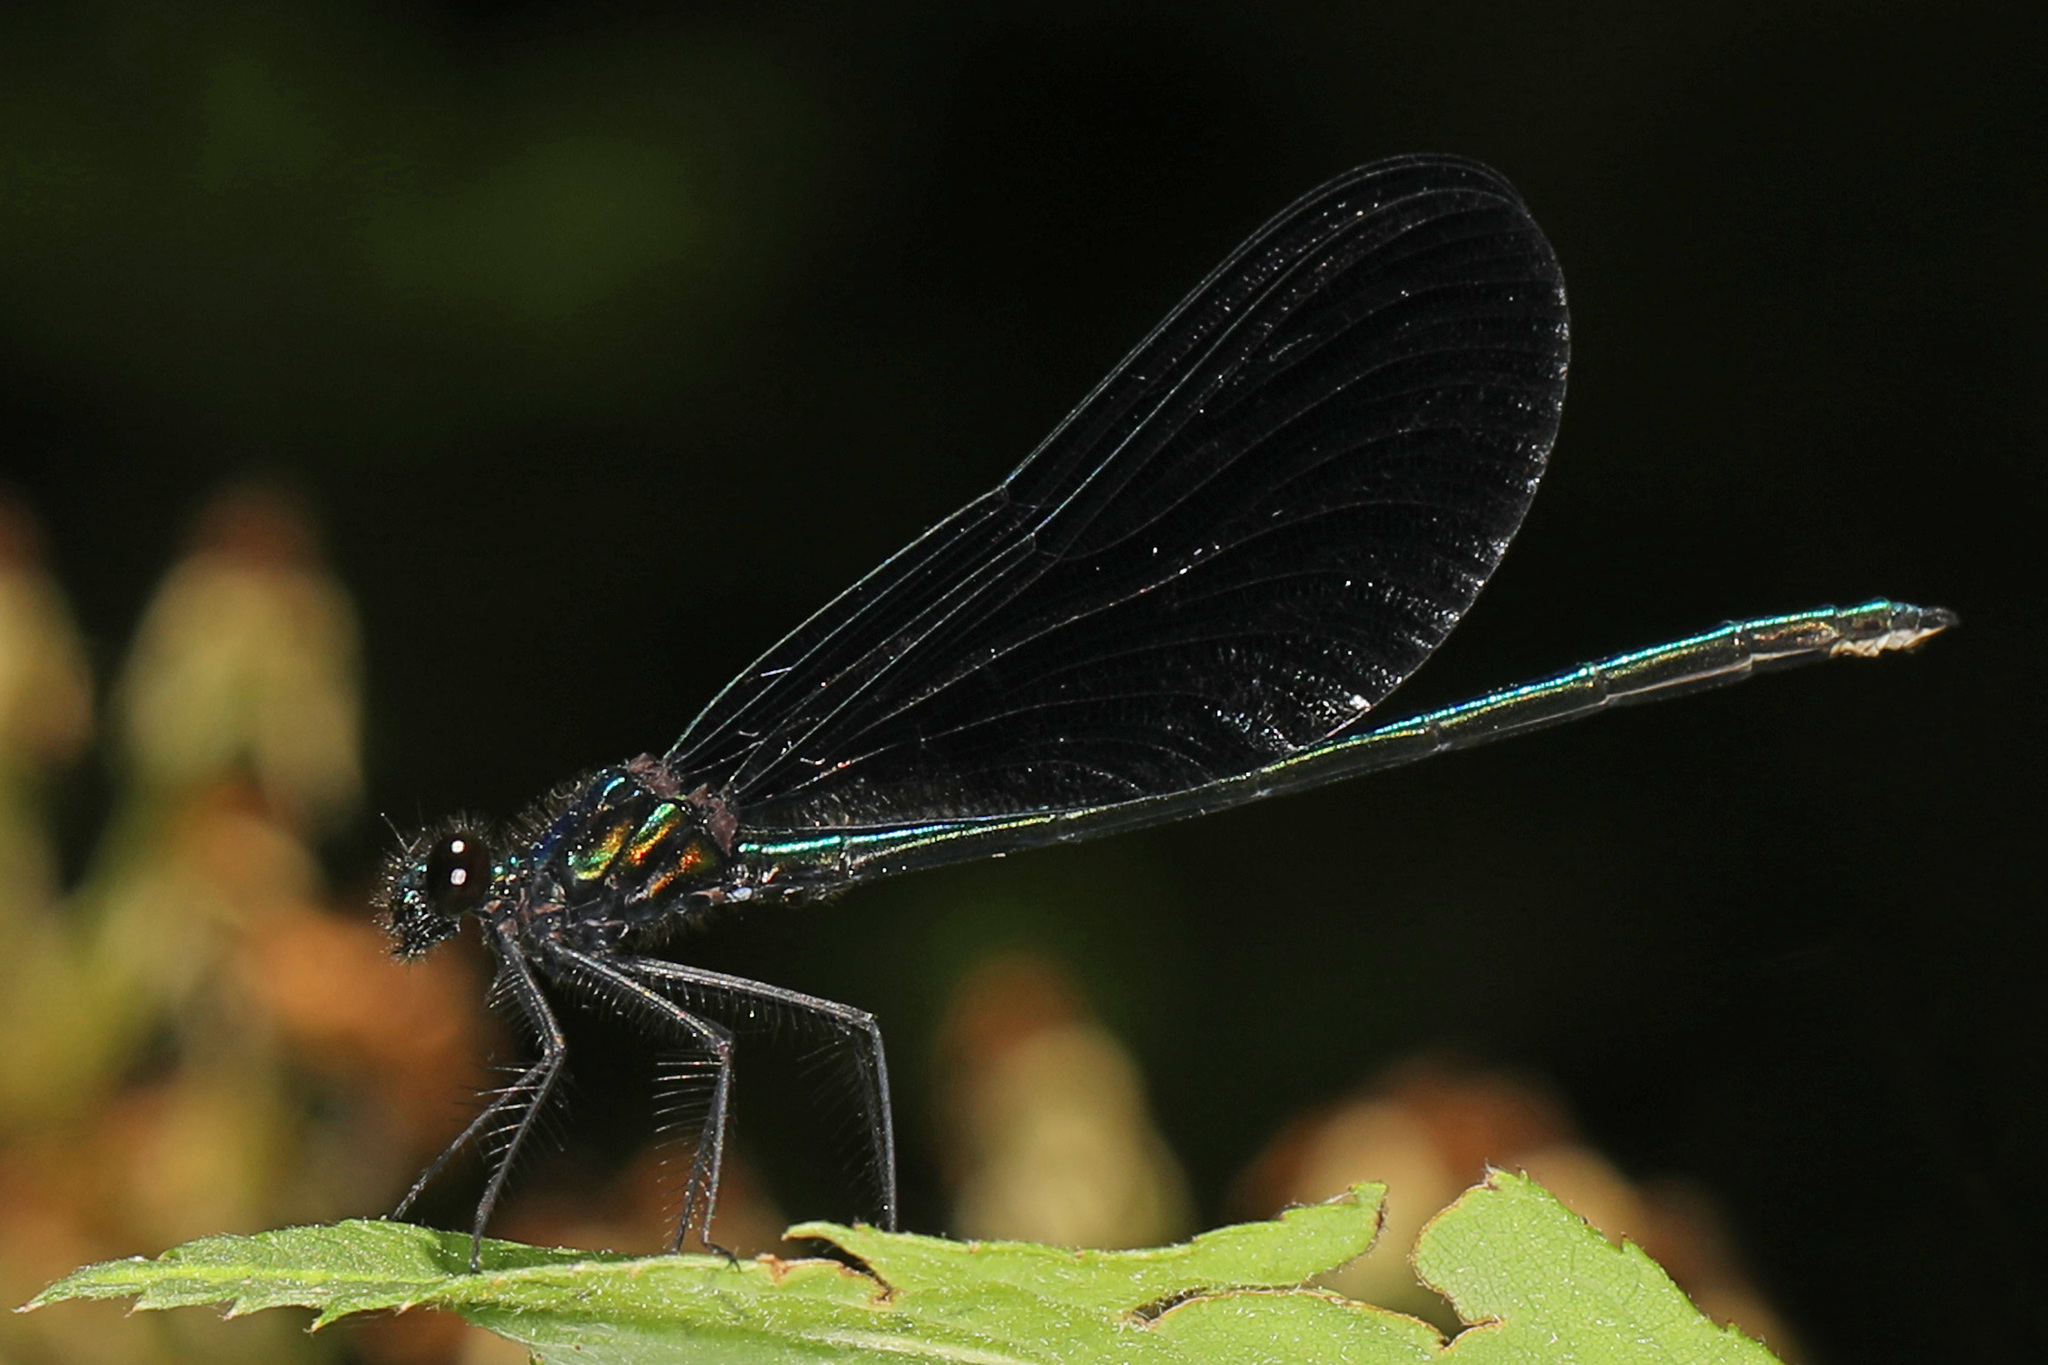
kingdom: Animalia
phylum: Arthropoda
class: Insecta
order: Odonata
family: Calopterygidae
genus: Calopteryx
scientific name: Calopteryx maculata
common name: Ebony jewelwing
